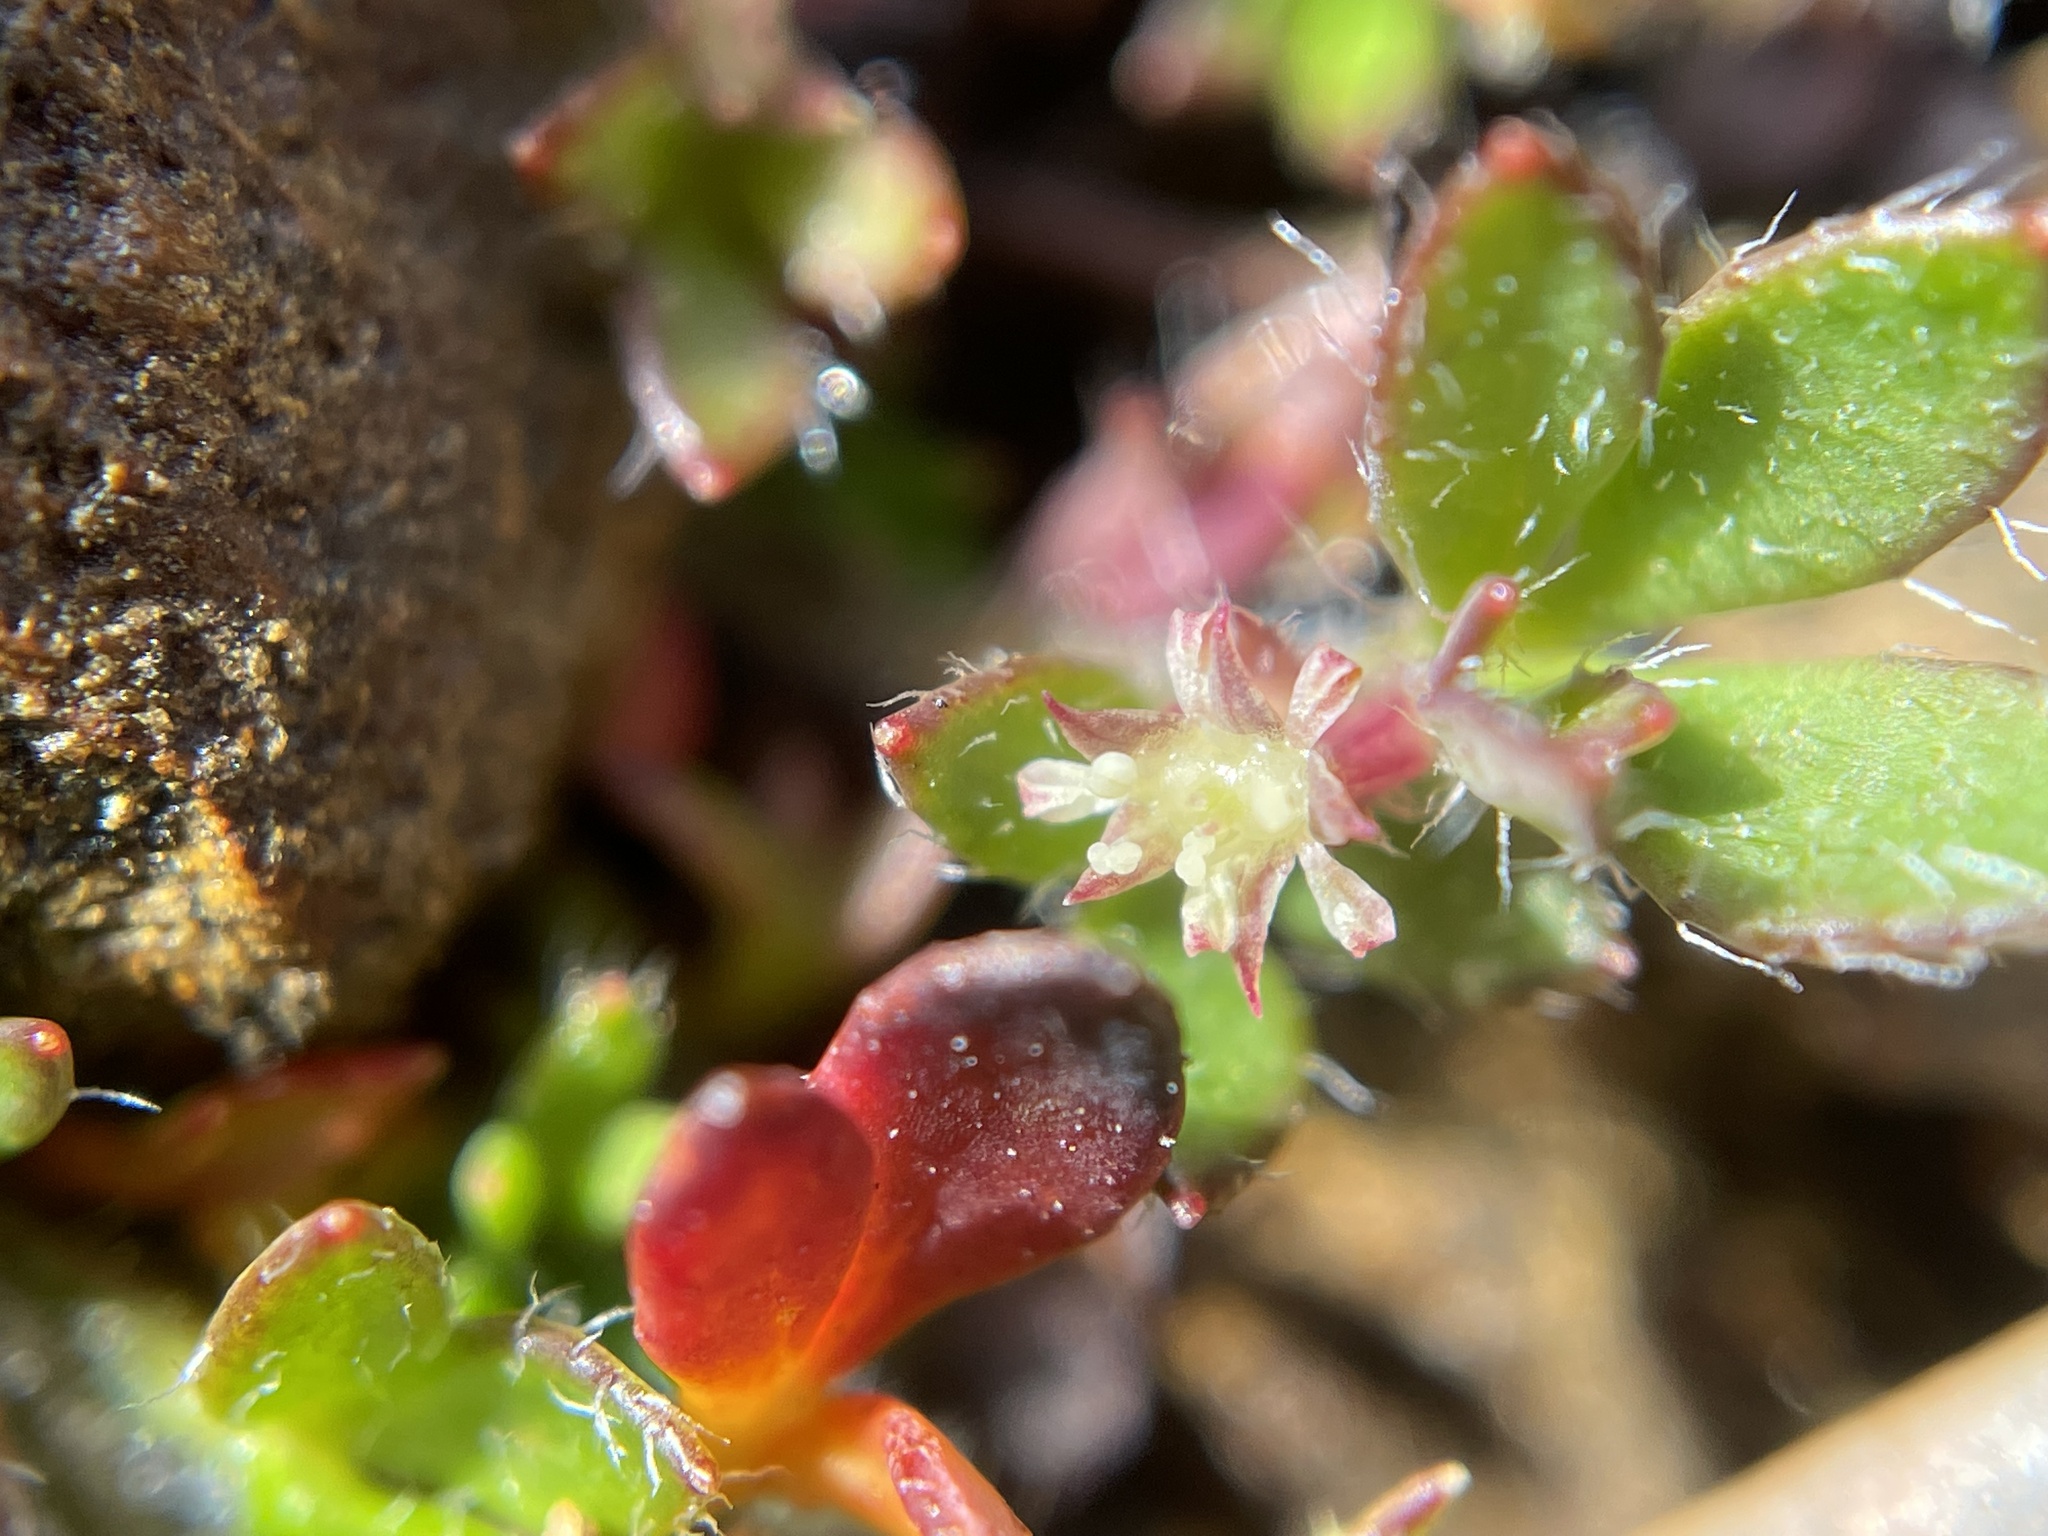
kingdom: Plantae
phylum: Tracheophyta
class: Magnoliopsida
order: Apiales
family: Apiaceae
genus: Xanthosia
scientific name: Xanthosia tasmanica
